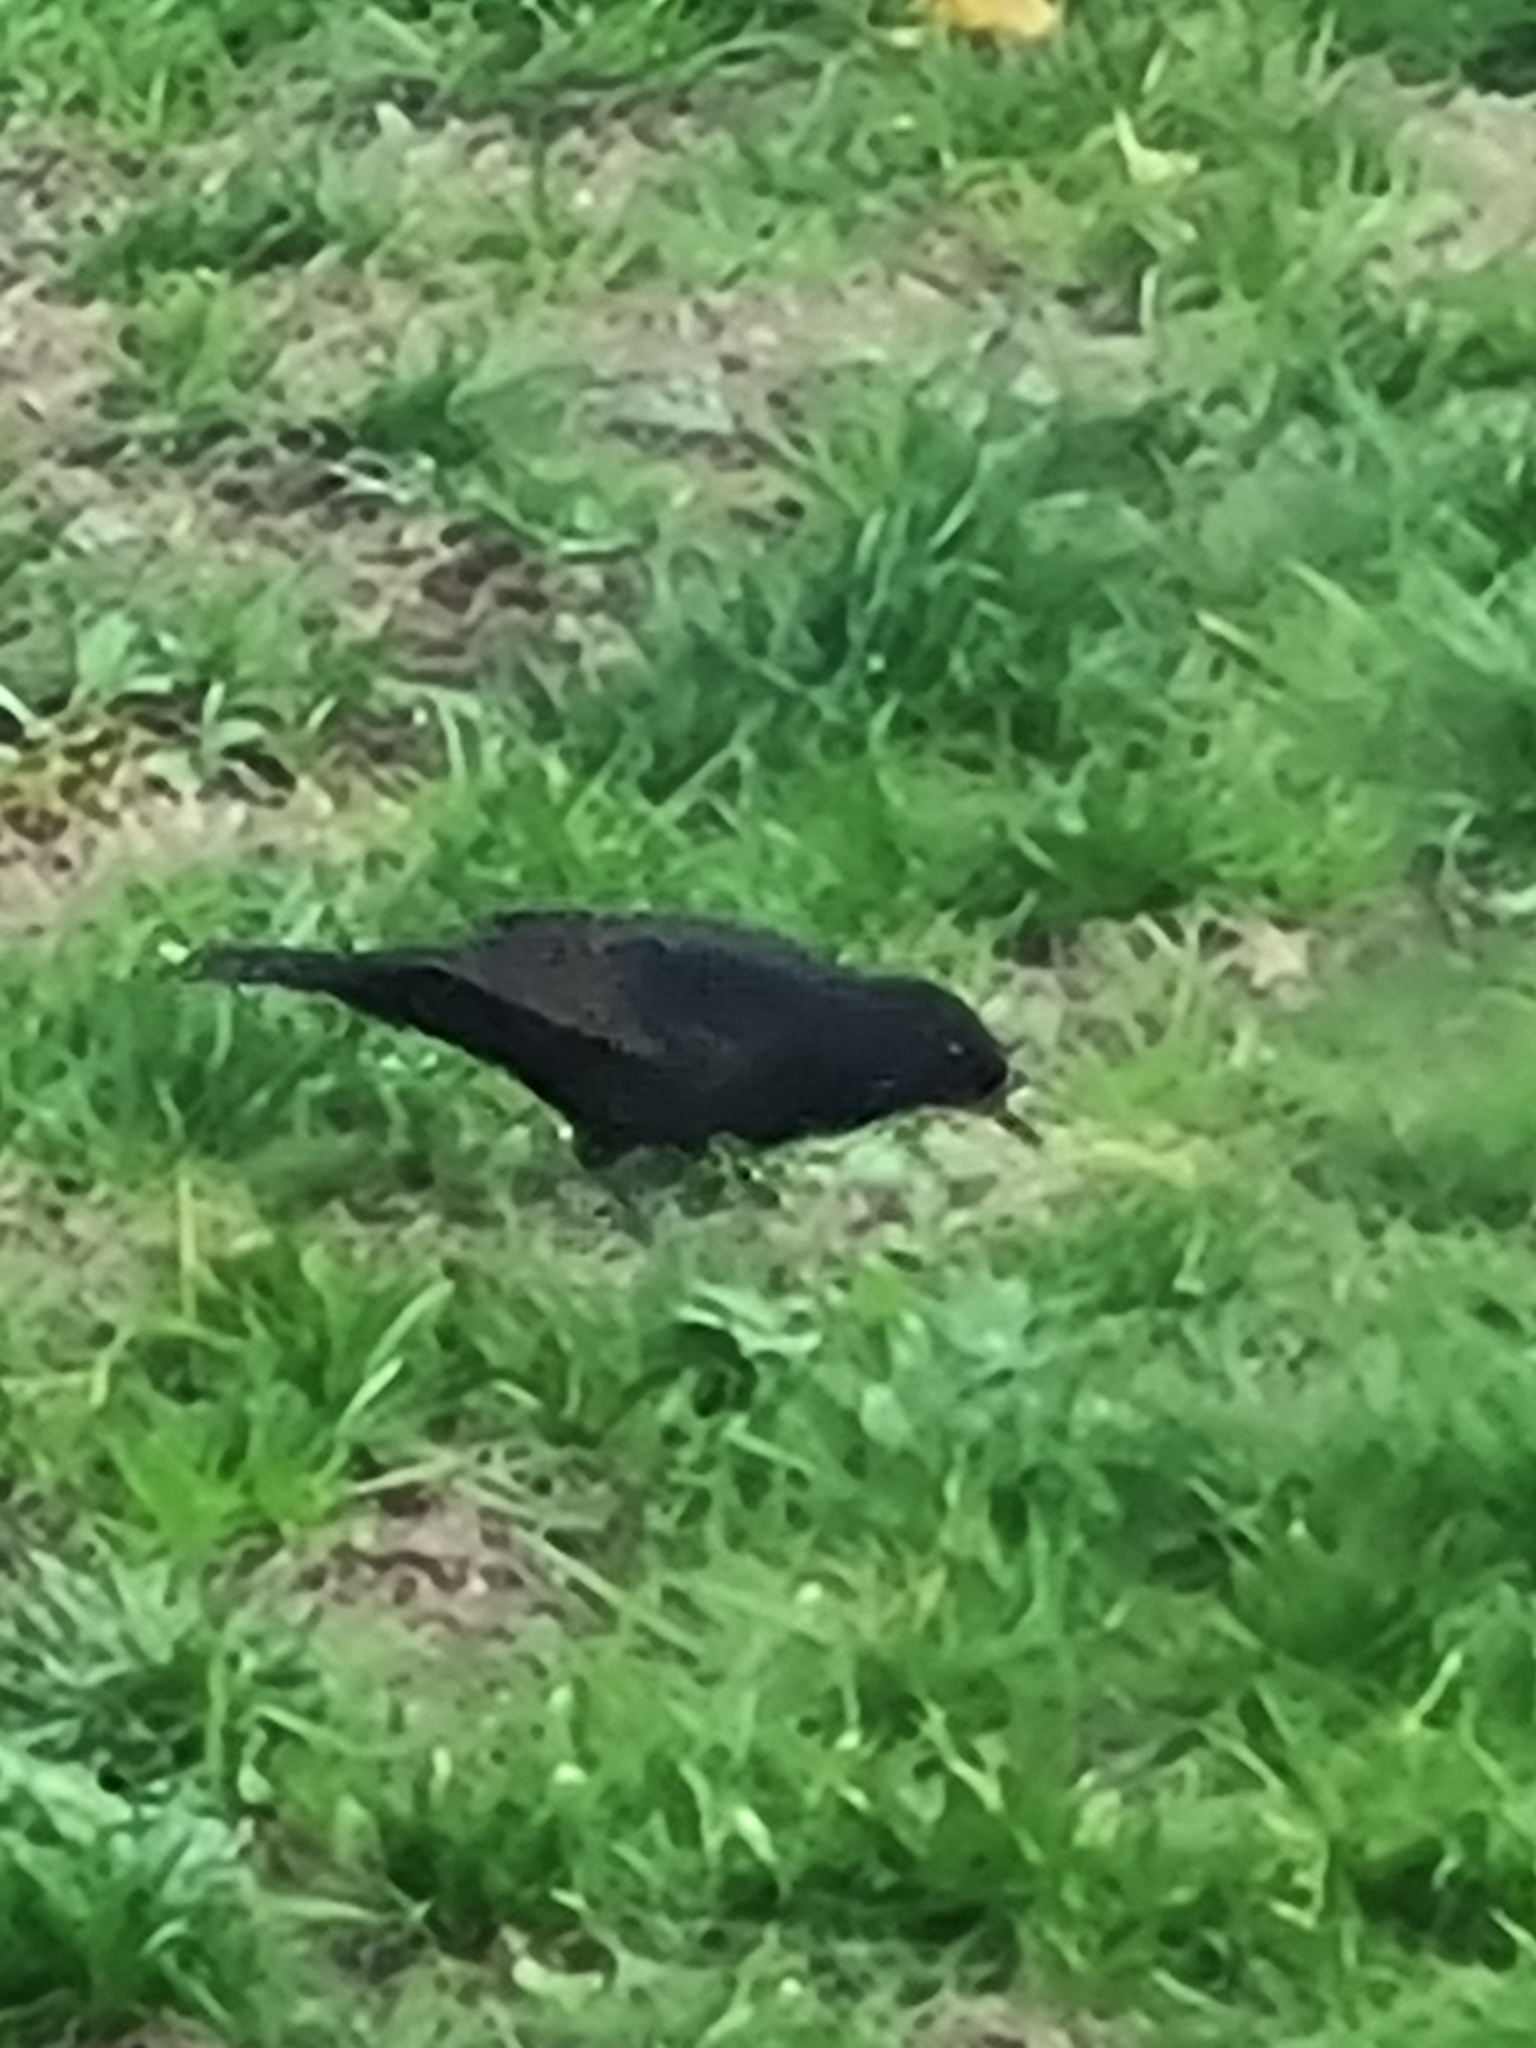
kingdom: Animalia
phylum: Chordata
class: Aves
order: Passeriformes
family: Turdidae
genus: Turdus
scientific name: Turdus merula
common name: Common blackbird
